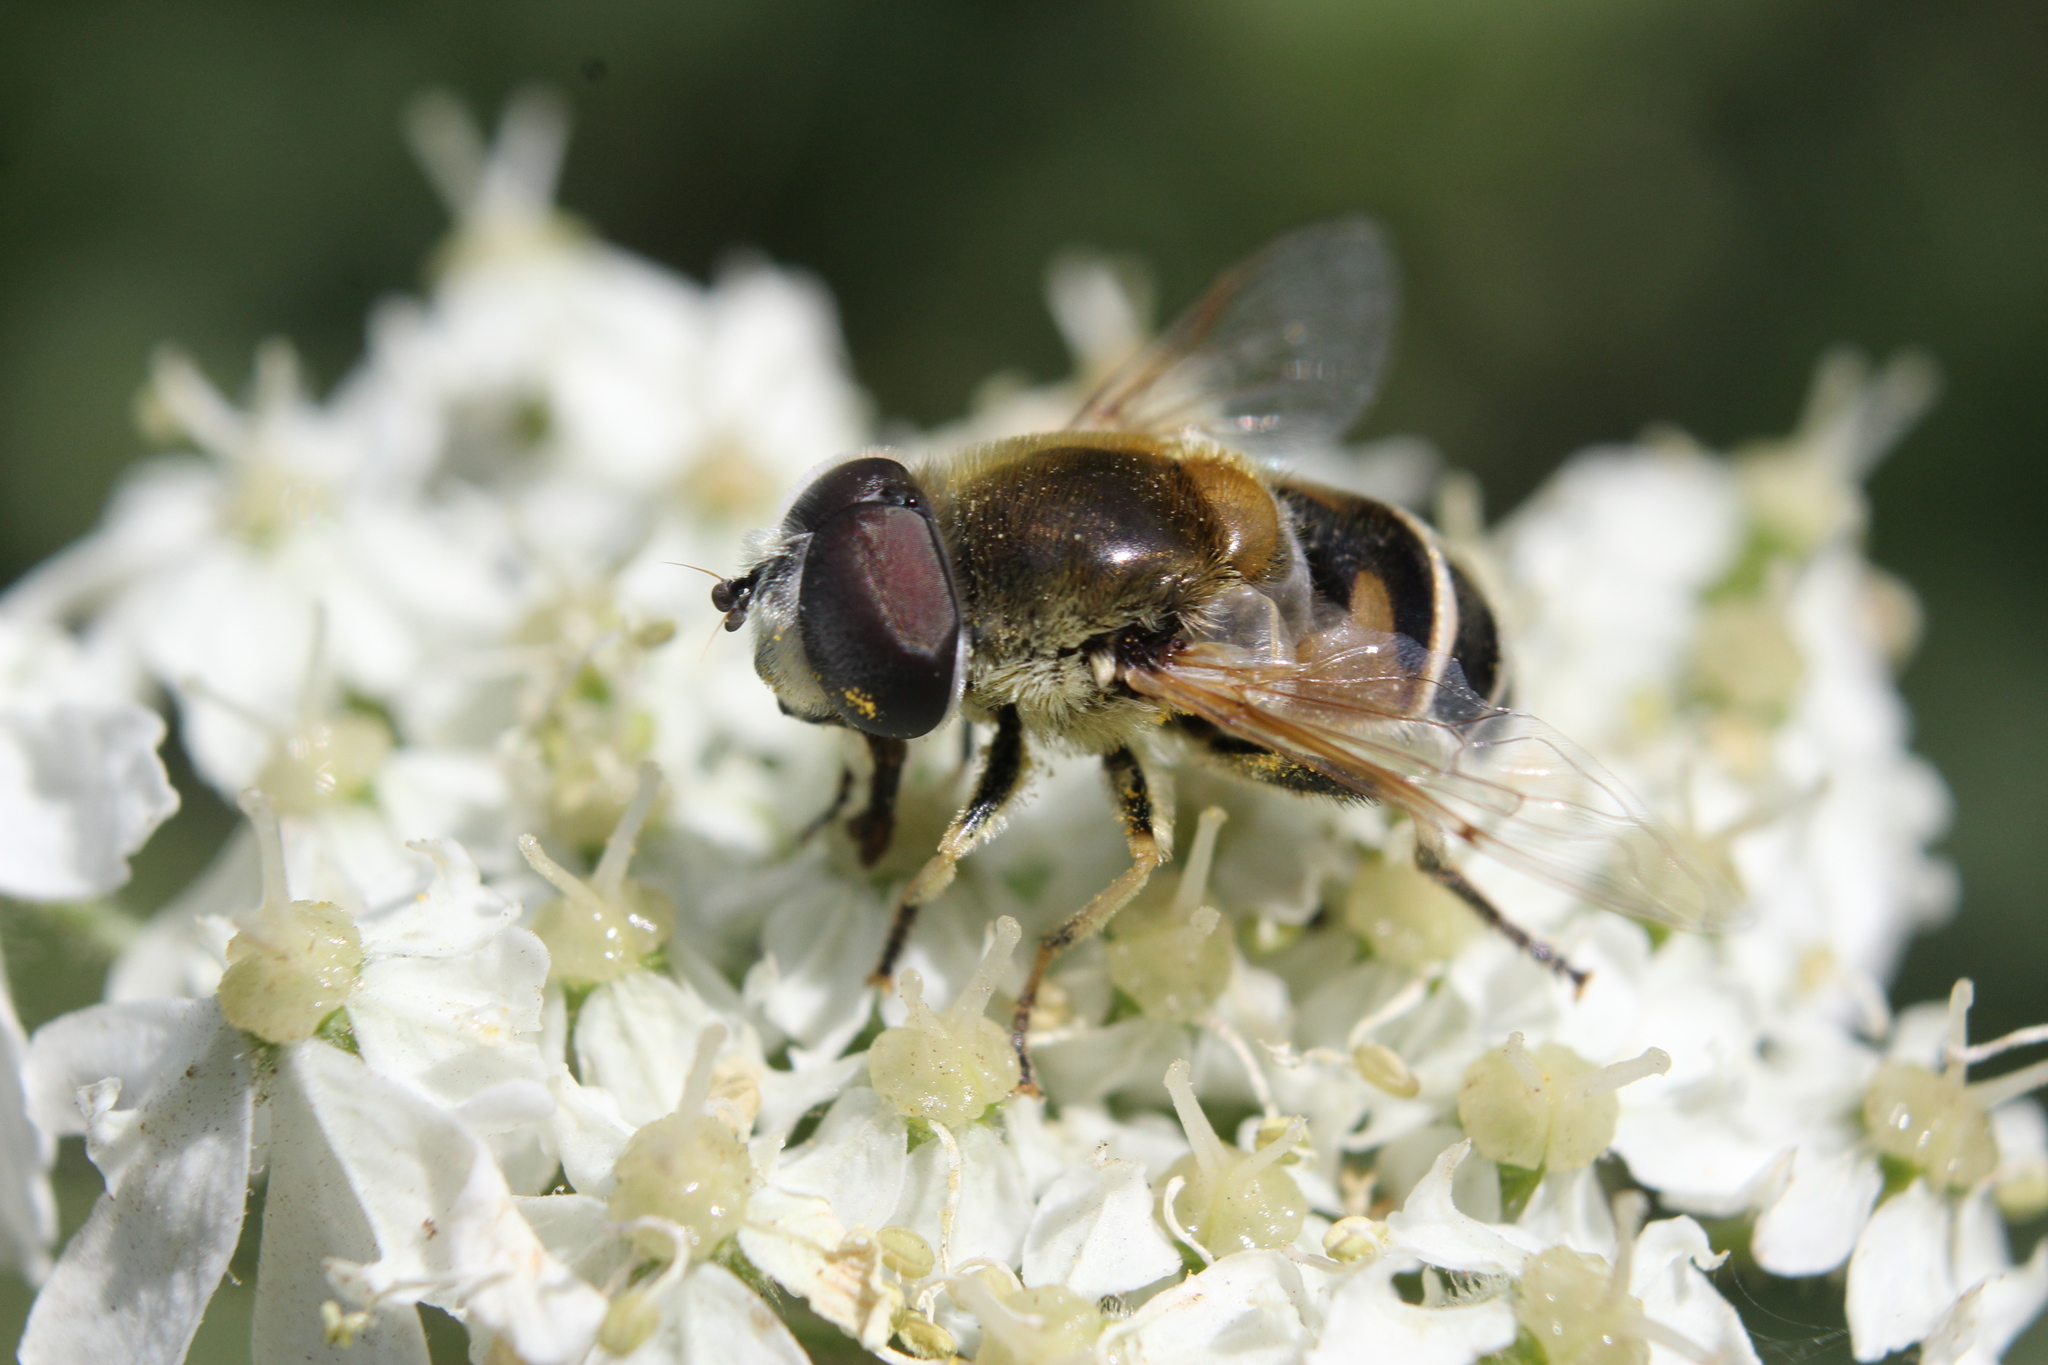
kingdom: Animalia
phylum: Arthropoda
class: Insecta
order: Diptera
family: Syrphidae
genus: Eristalis
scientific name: Eristalis stipator
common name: Yellow-shouldered drone fly
